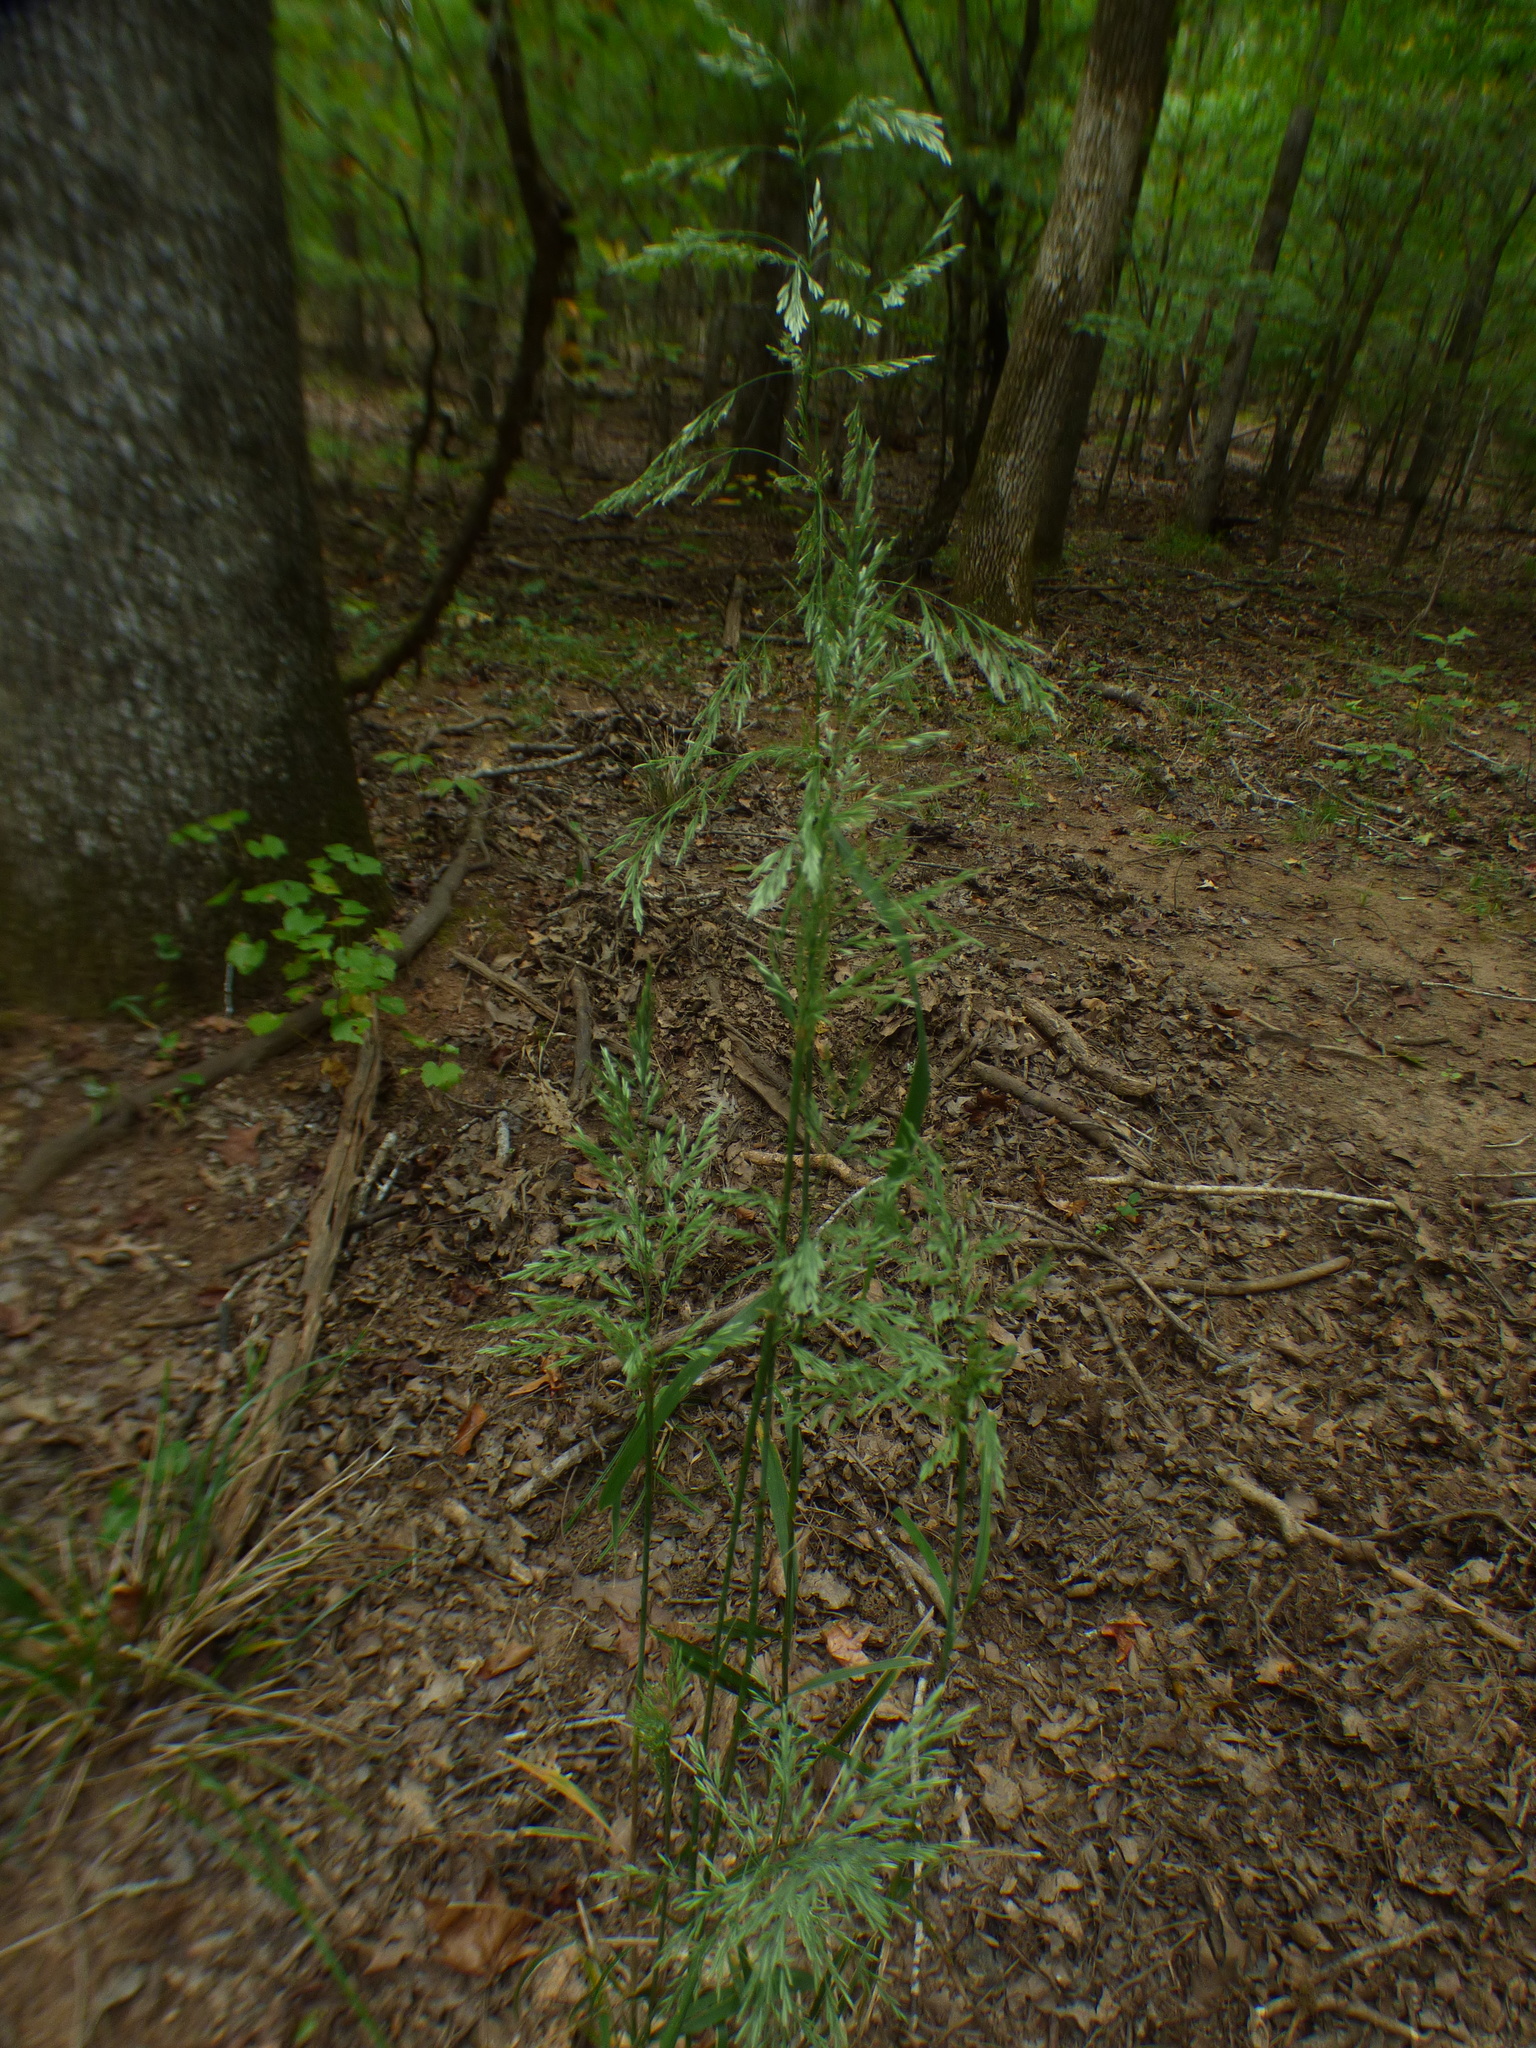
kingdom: Plantae
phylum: Tracheophyta
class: Liliopsida
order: Poales
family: Poaceae
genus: Cinna
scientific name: Cinna arundinacea
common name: Stout woodreed
